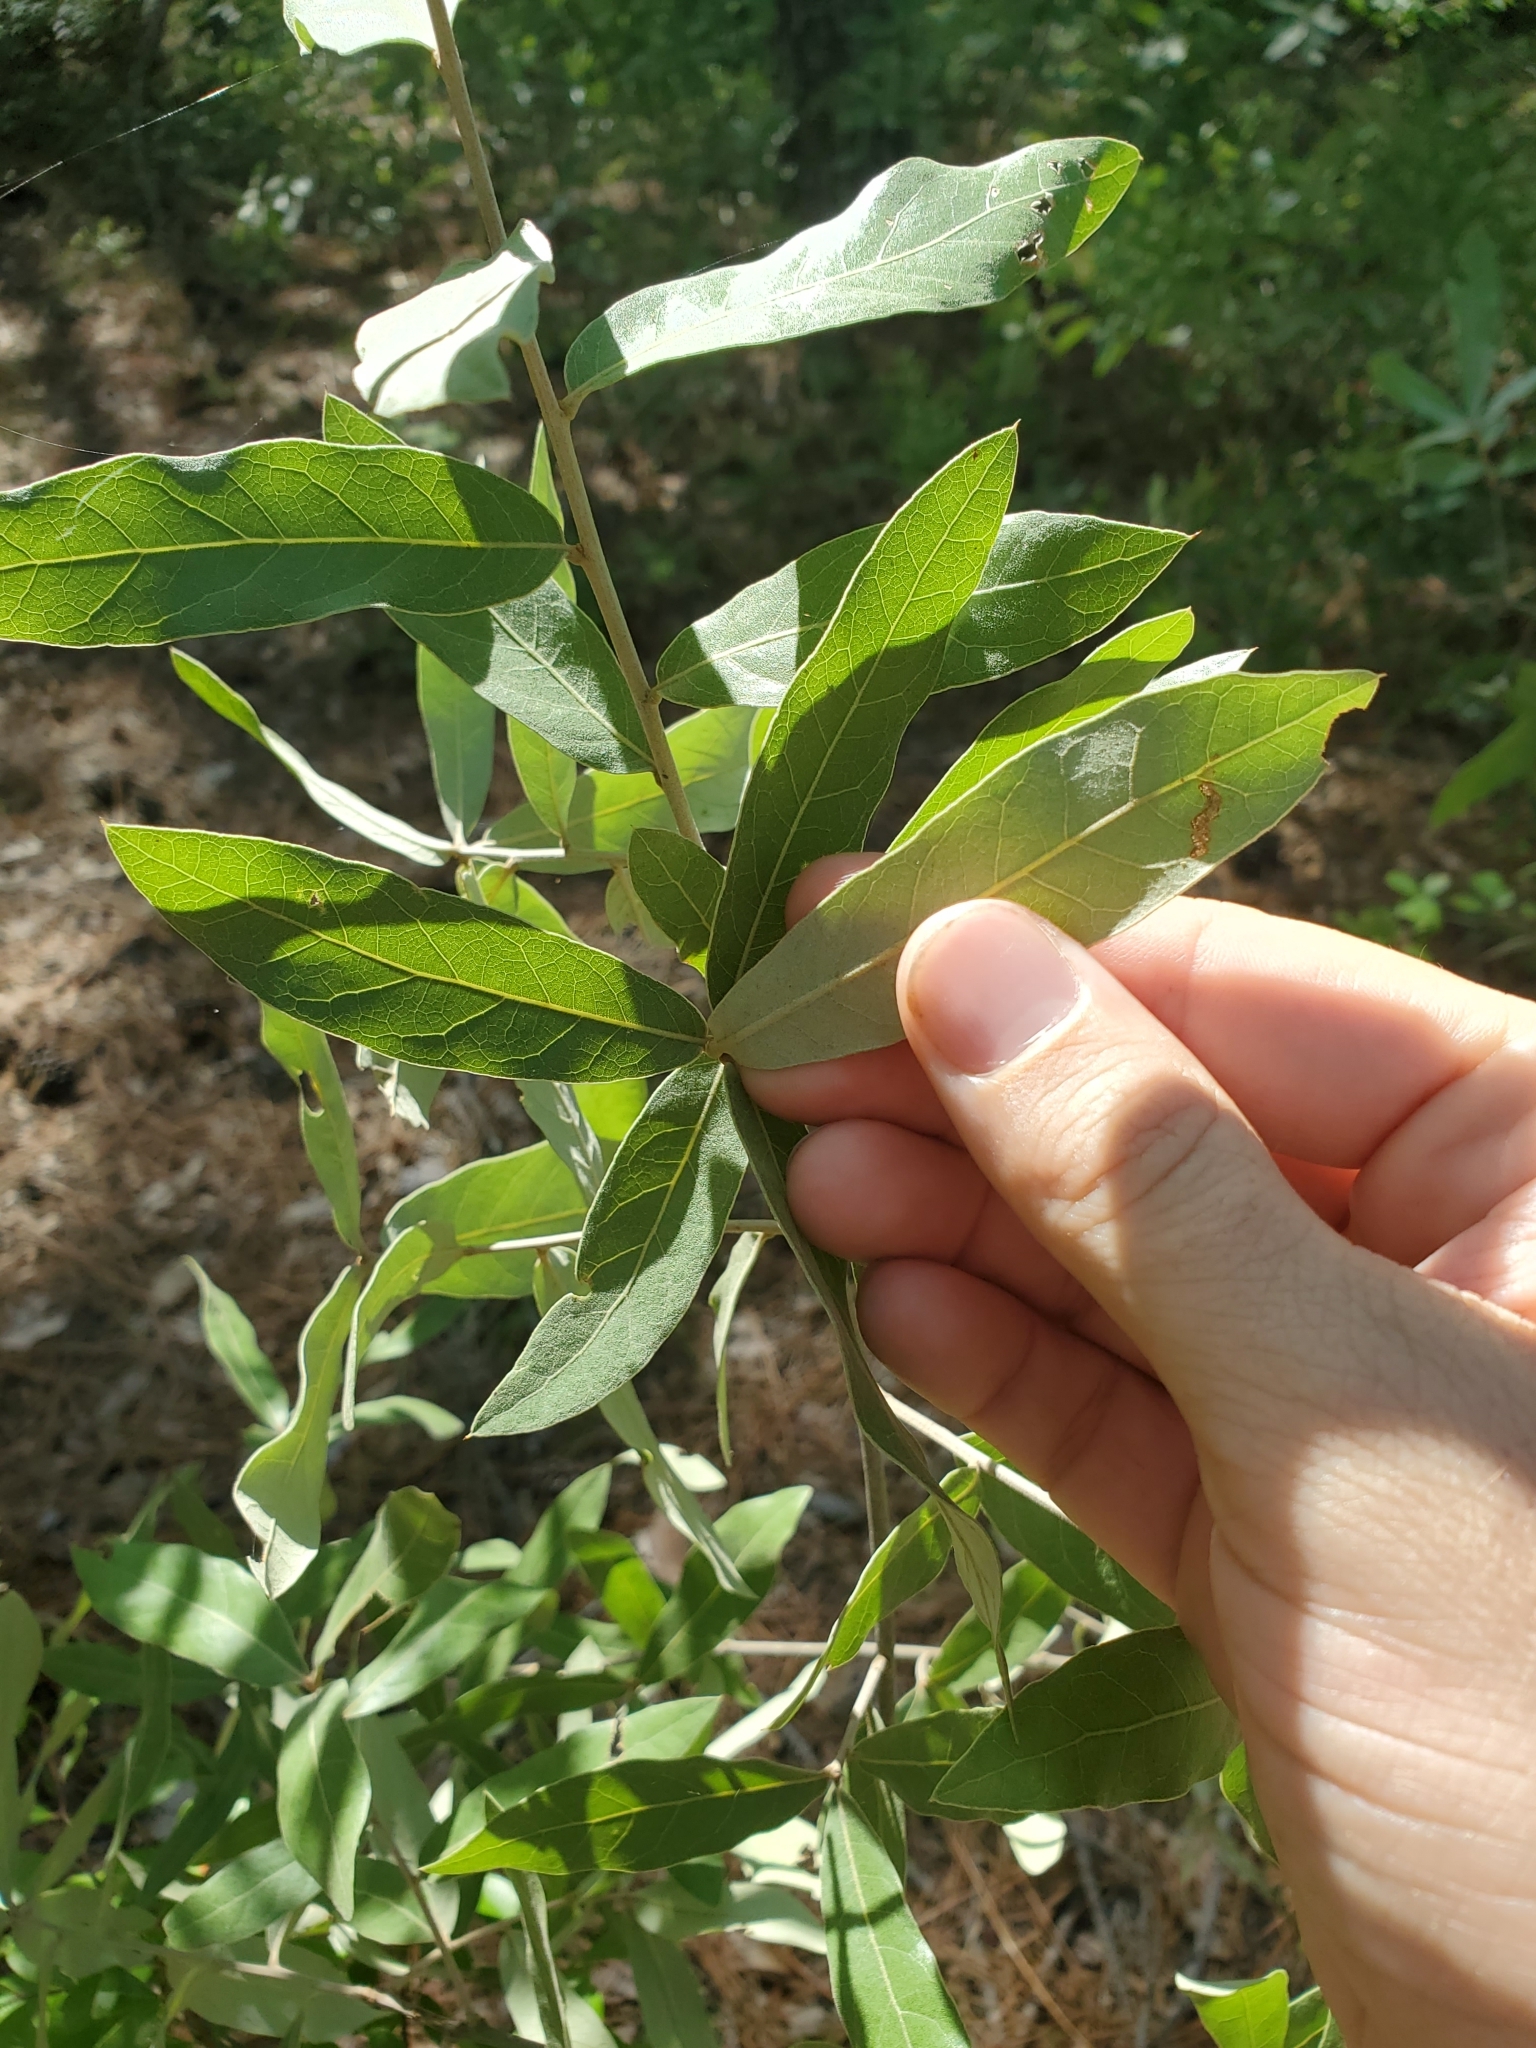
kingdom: Plantae
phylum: Tracheophyta
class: Magnoliopsida
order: Fagales
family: Fagaceae
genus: Quercus
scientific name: Quercus incana
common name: Bluejack oak
